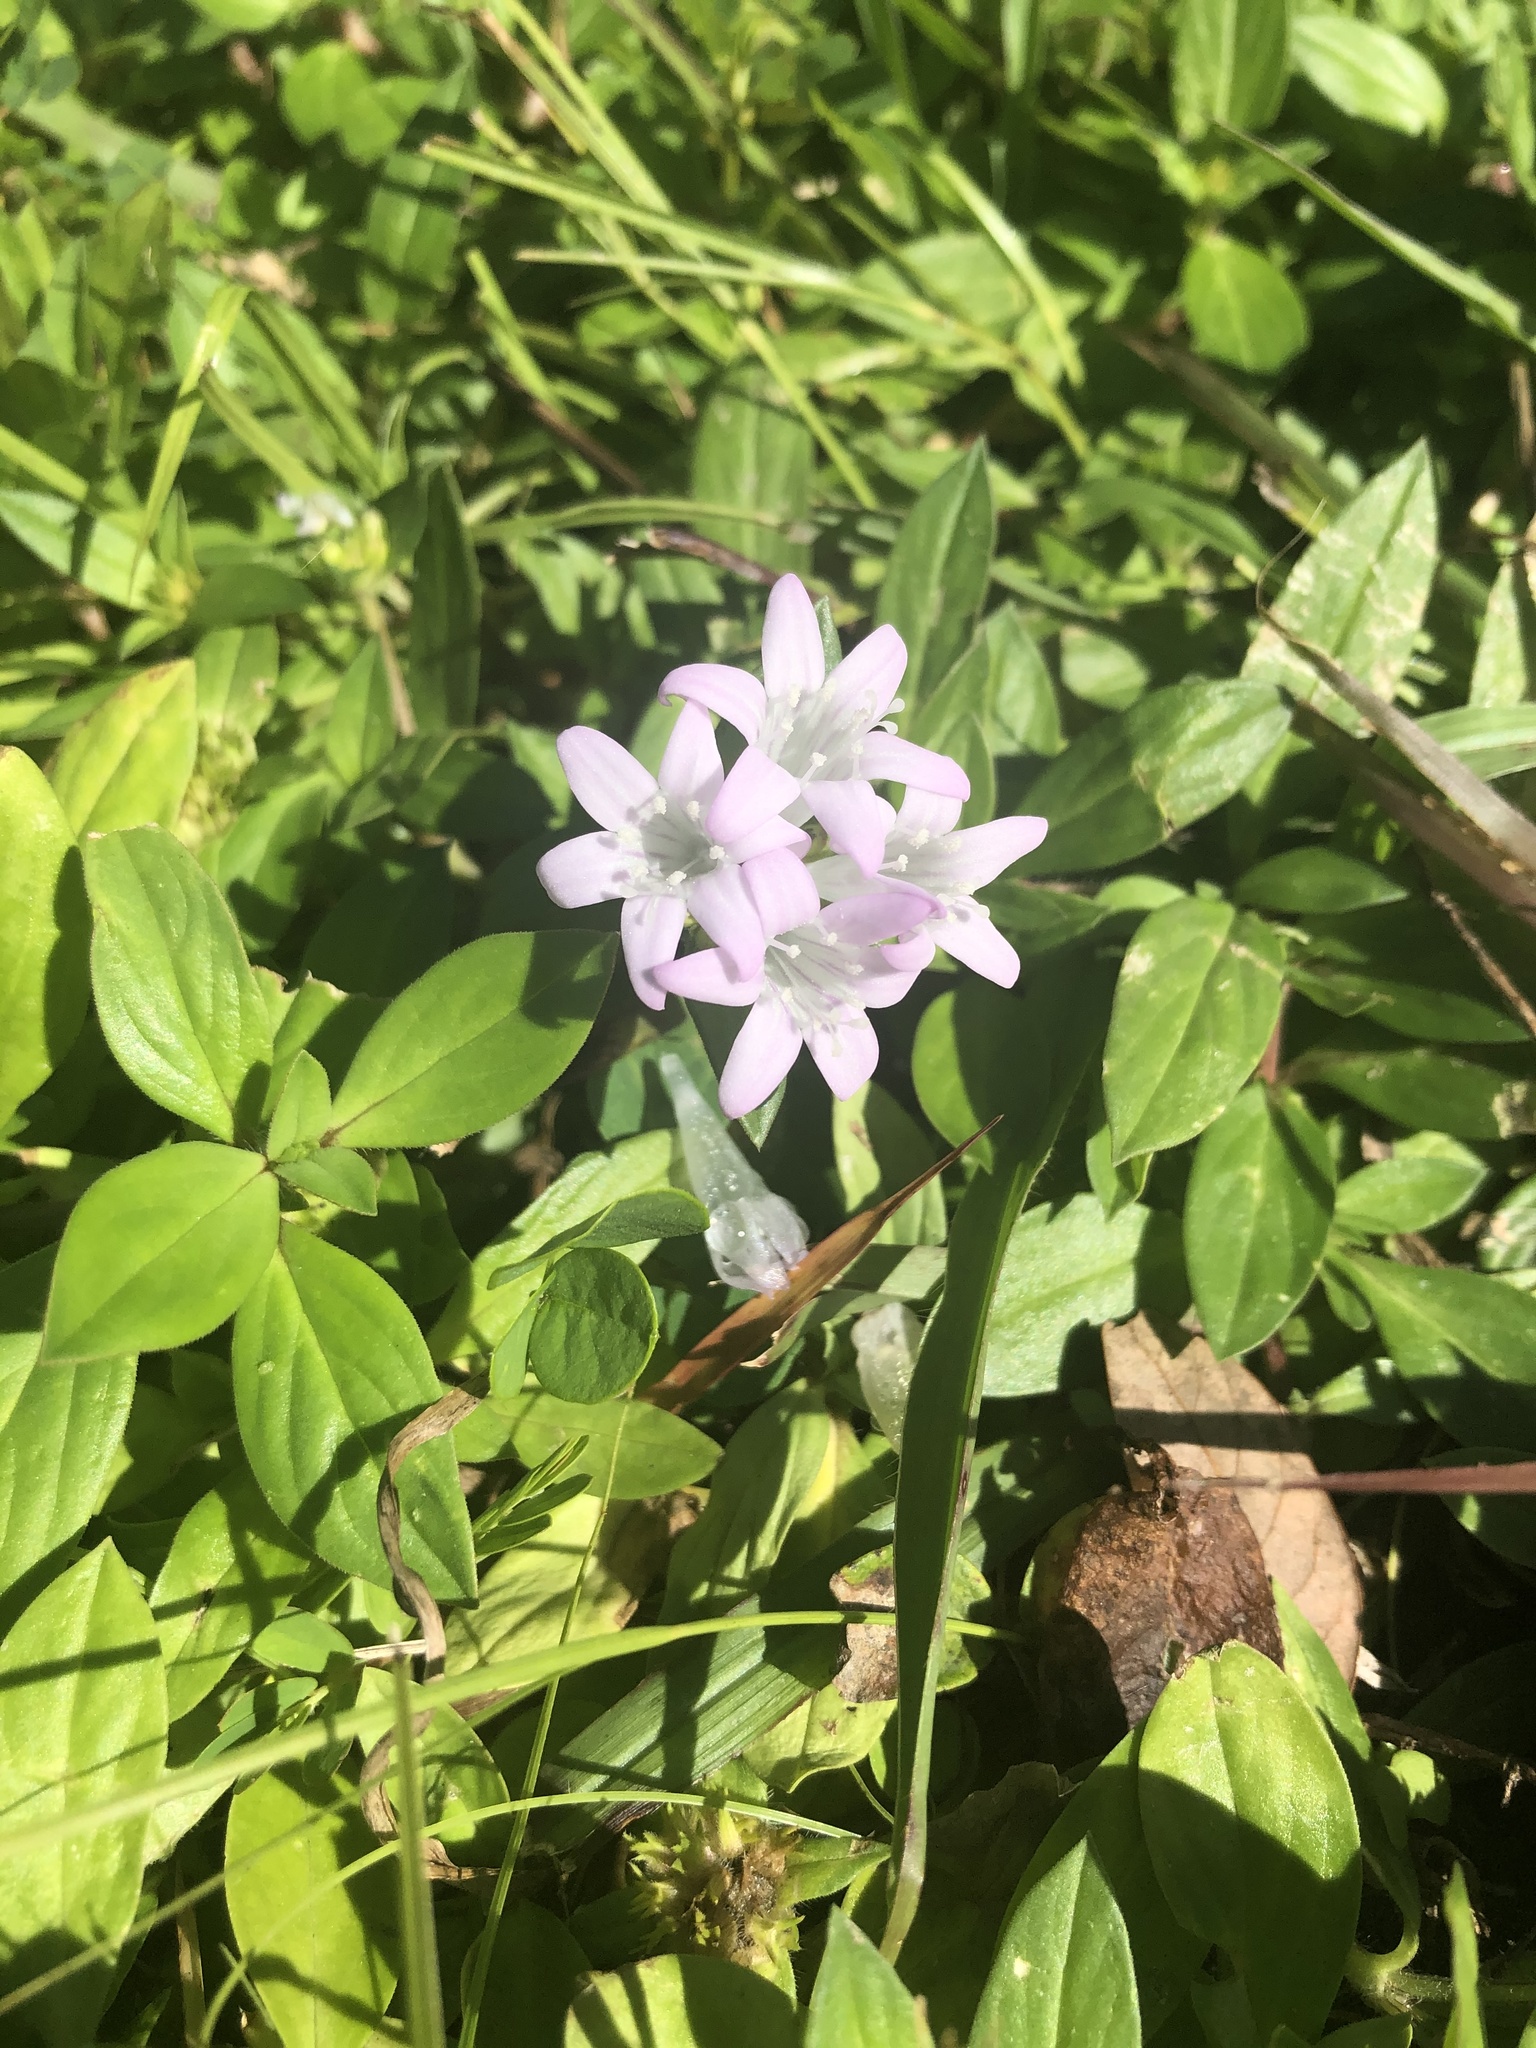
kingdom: Plantae
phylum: Tracheophyta
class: Magnoliopsida
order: Gentianales
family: Rubiaceae
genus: Richardia
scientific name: Richardia grandiflora
